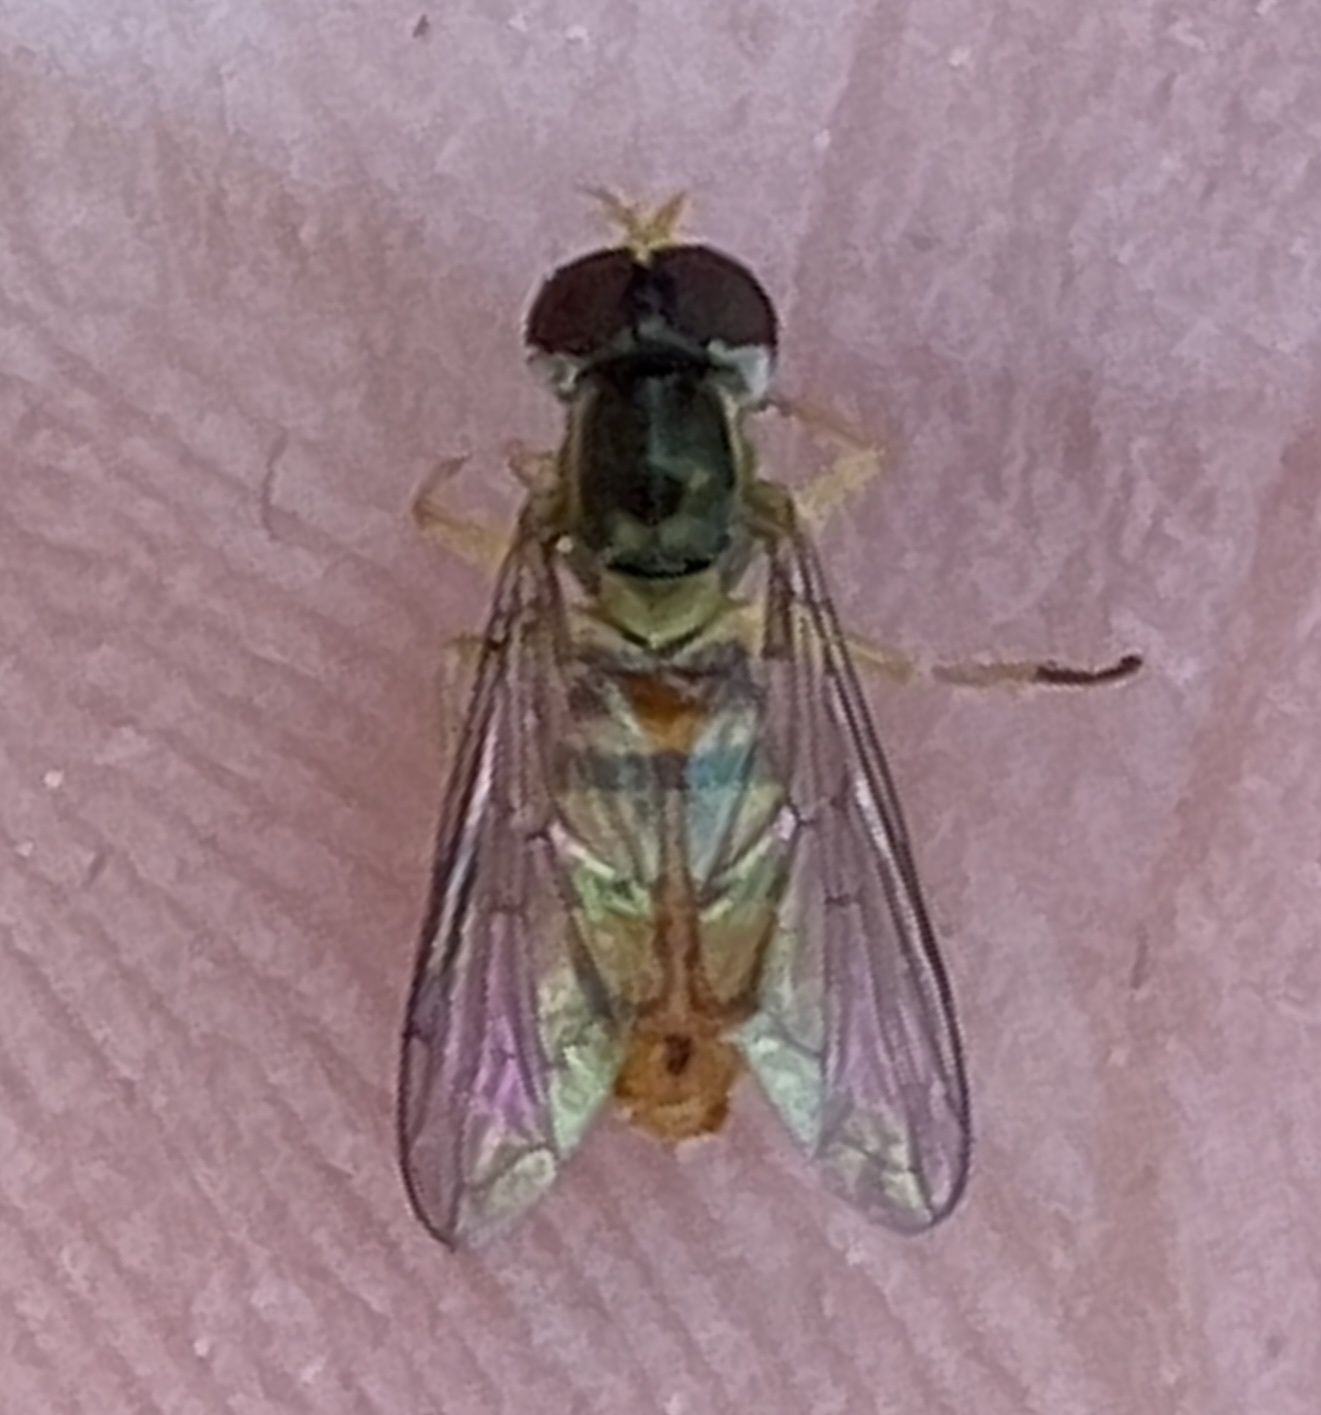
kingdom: Animalia
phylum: Arthropoda
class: Insecta
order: Diptera
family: Syrphidae
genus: Toxomerus
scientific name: Toxomerus marginatus
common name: Syrphid fly
